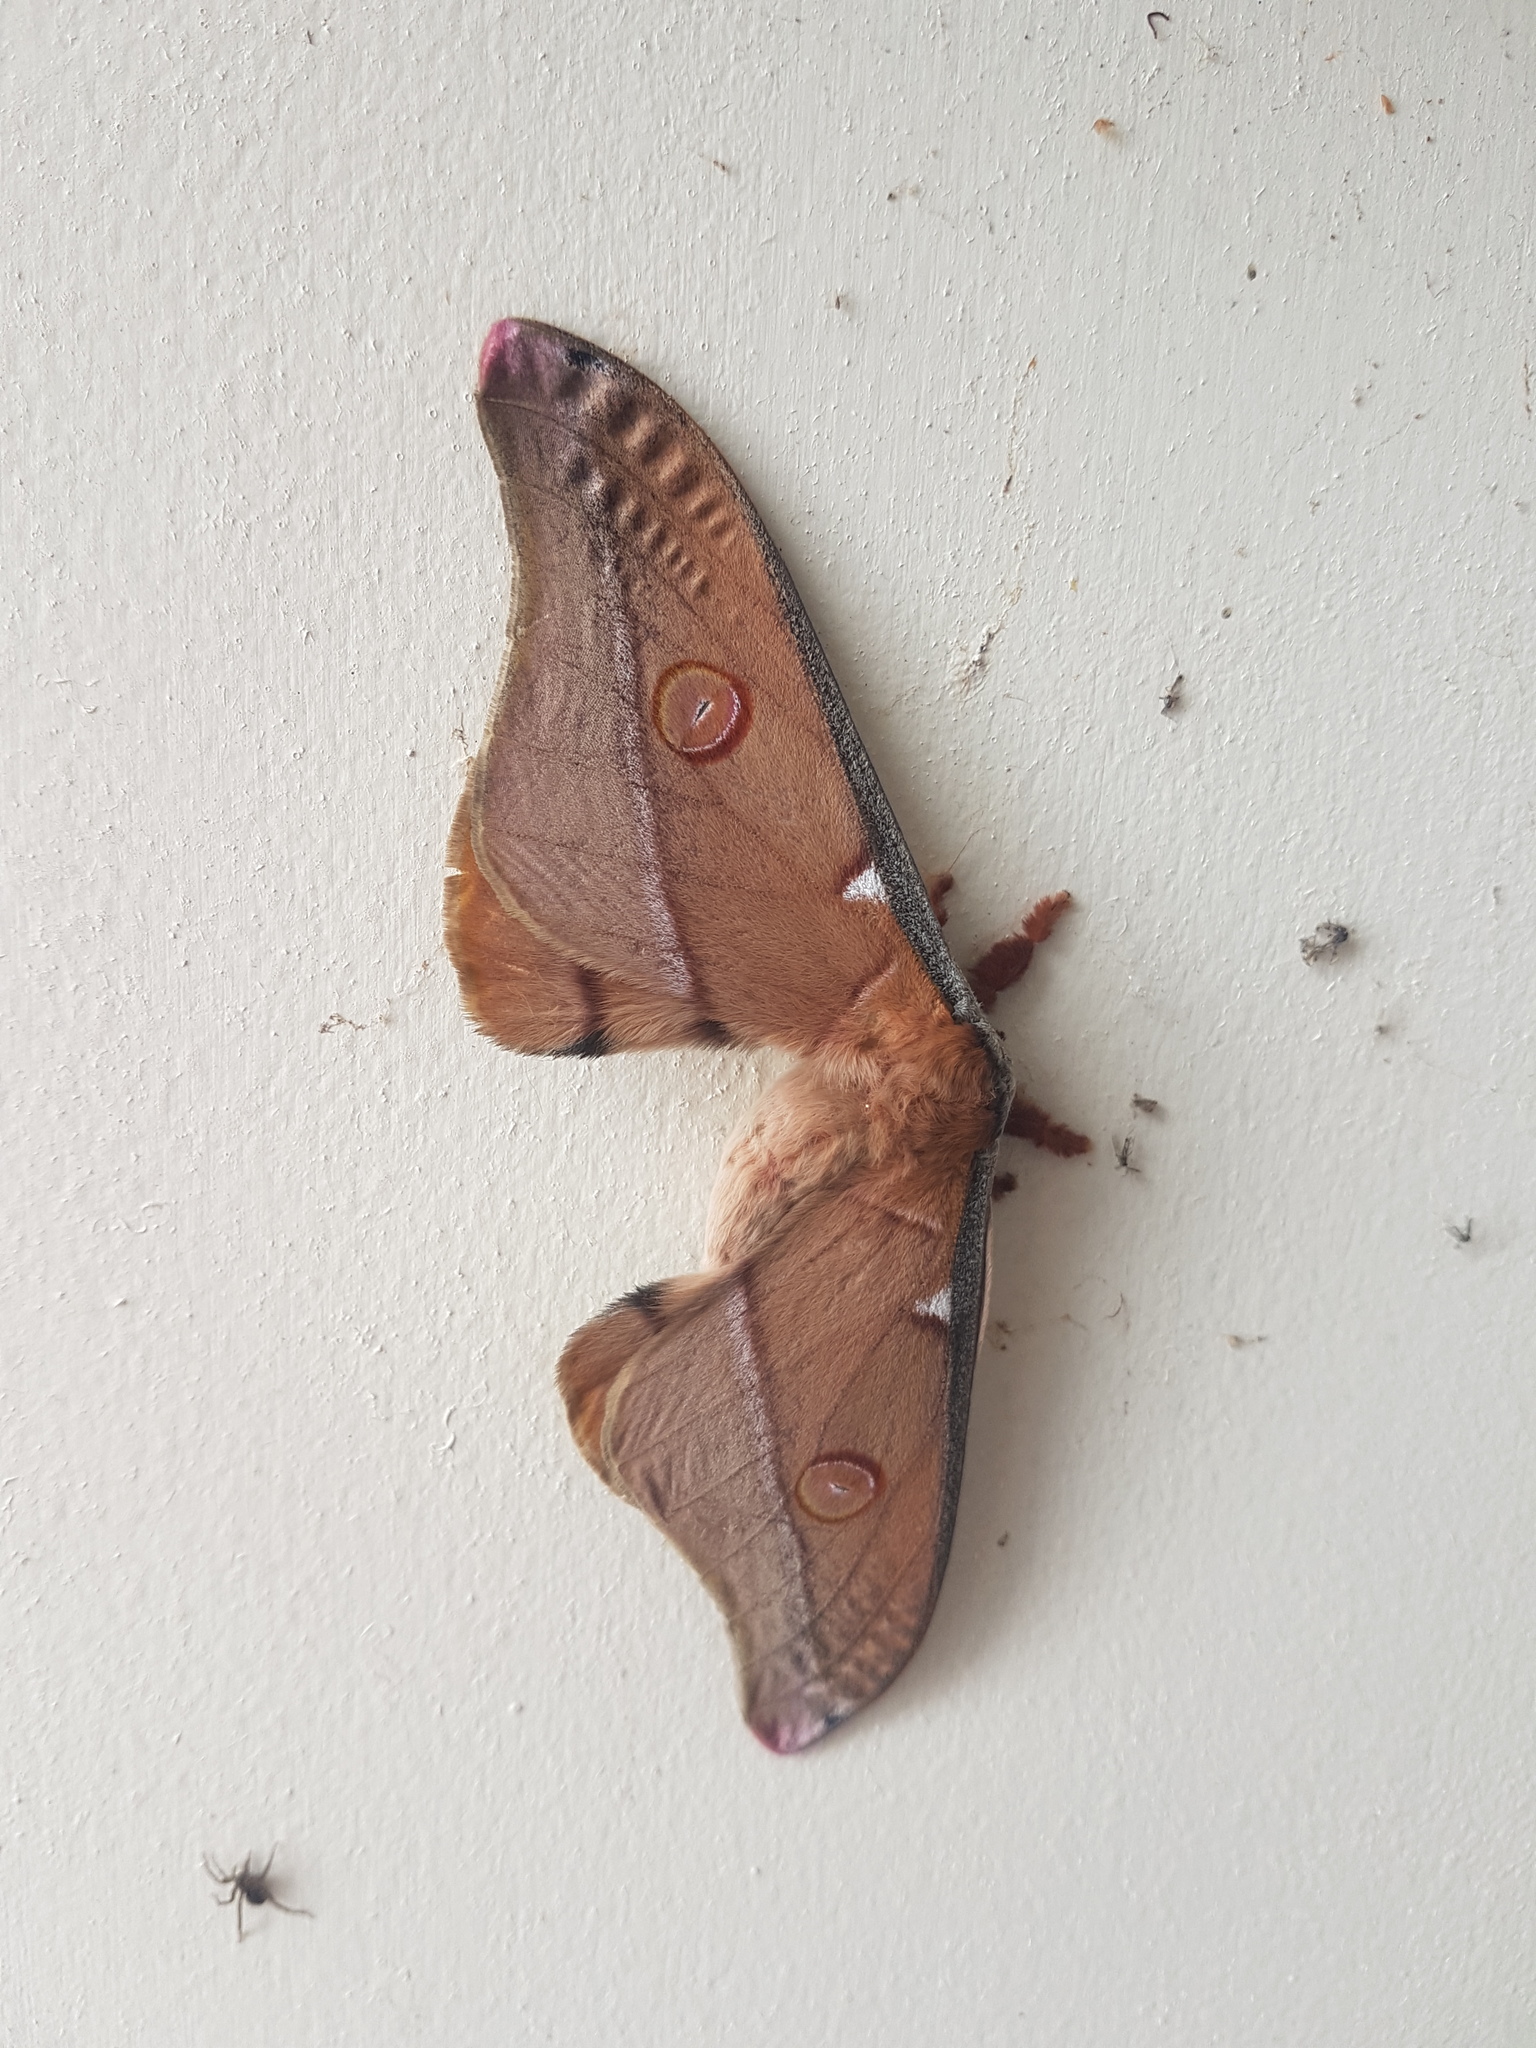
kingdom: Animalia
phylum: Arthropoda
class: Insecta
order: Lepidoptera
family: Saturniidae
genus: Opodiphthera
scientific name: Opodiphthera
